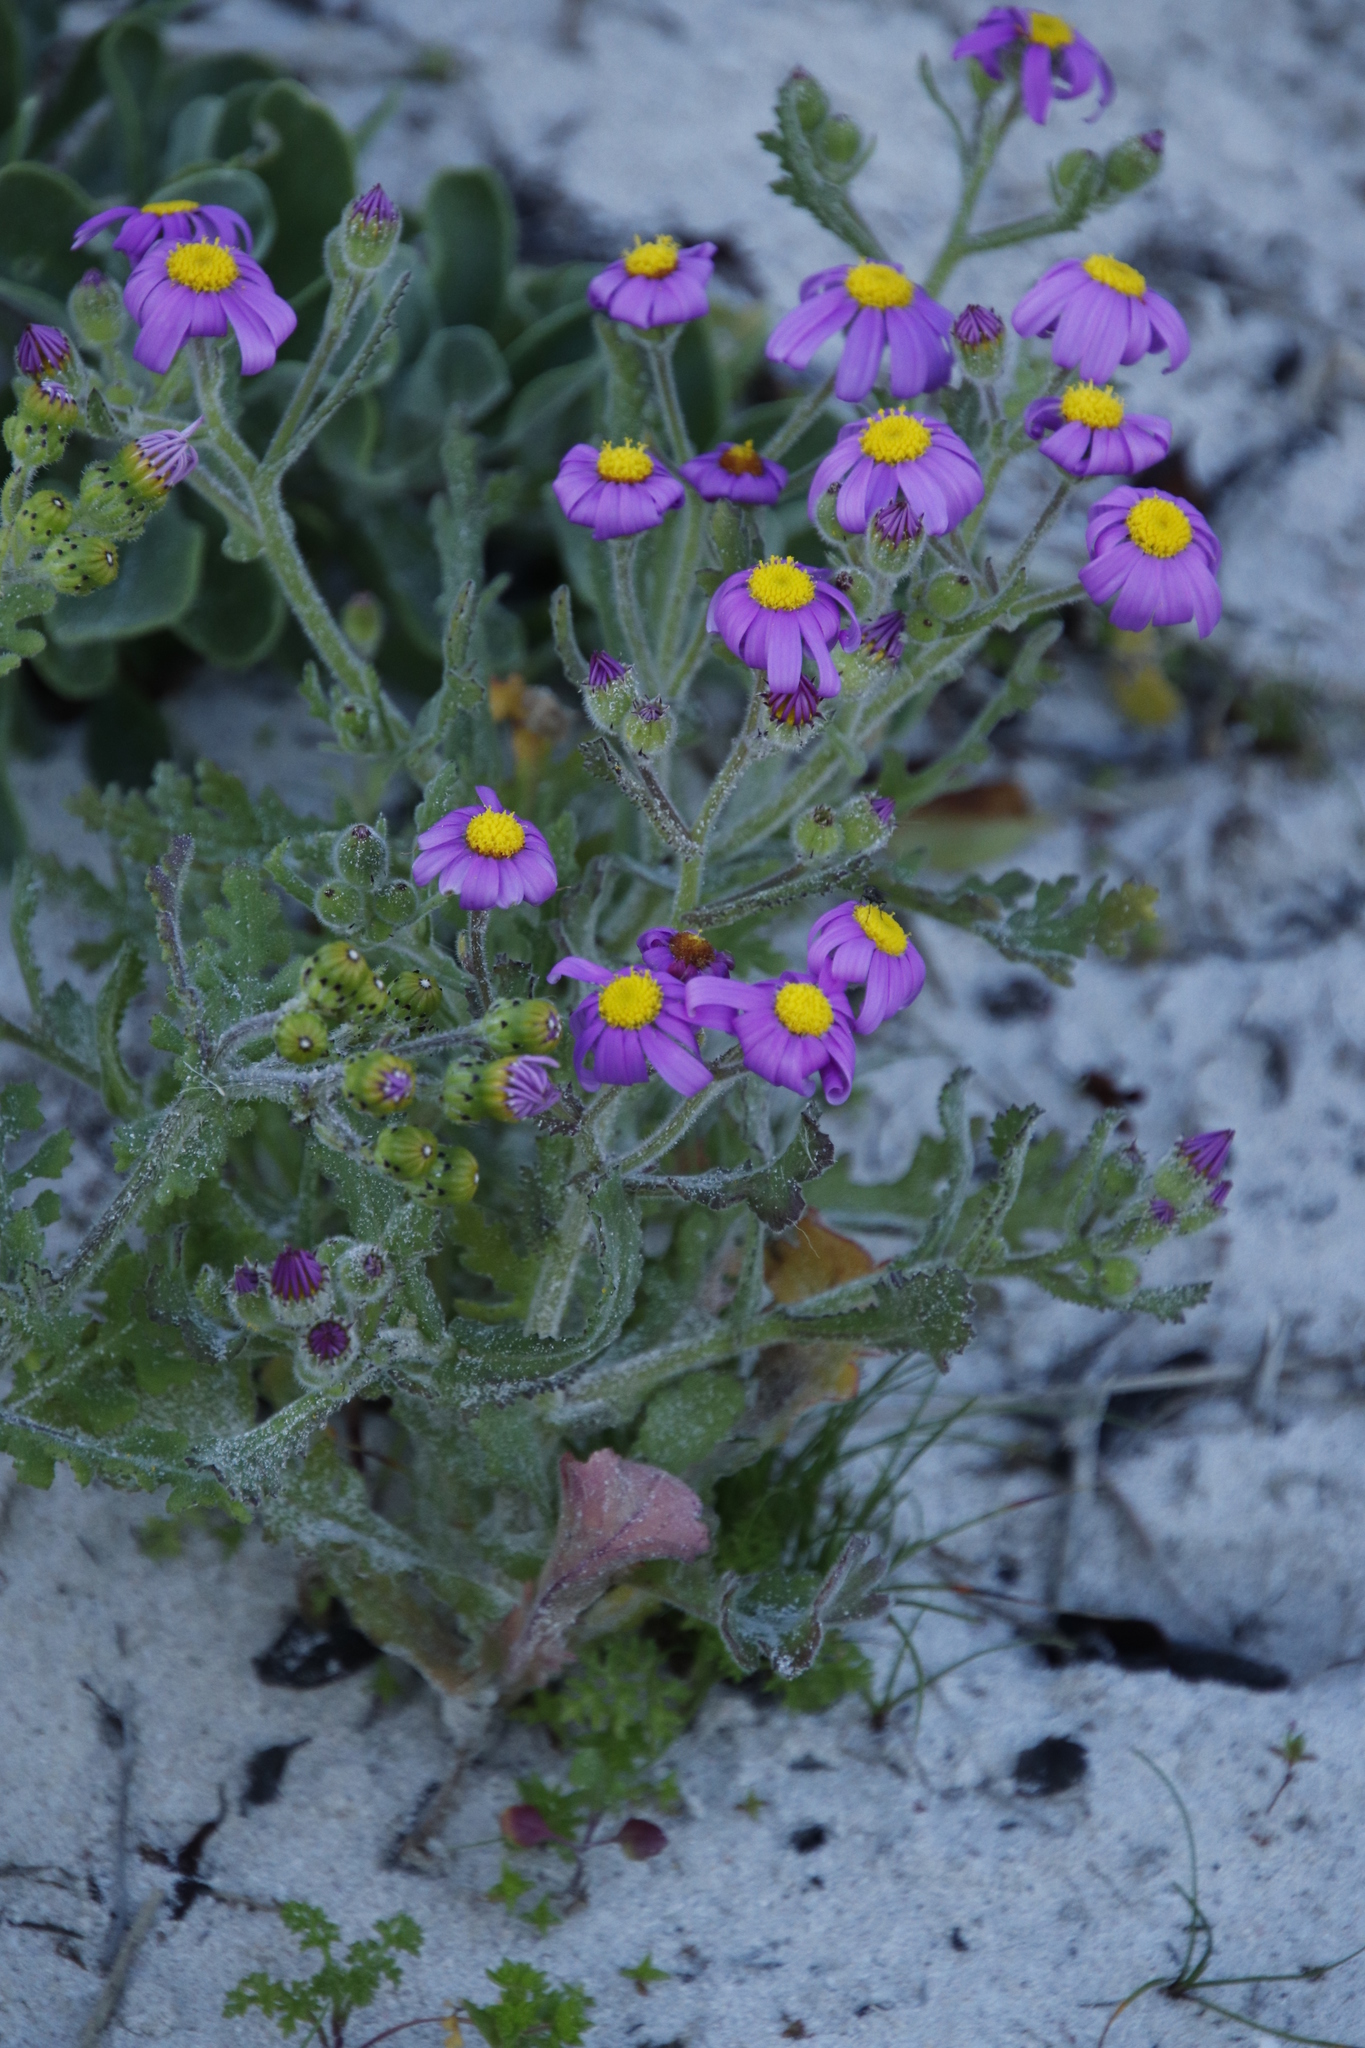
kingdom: Plantae
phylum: Tracheophyta
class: Magnoliopsida
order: Asterales
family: Asteraceae
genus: Senecio
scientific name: Senecio elegans
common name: Purple groundsel
